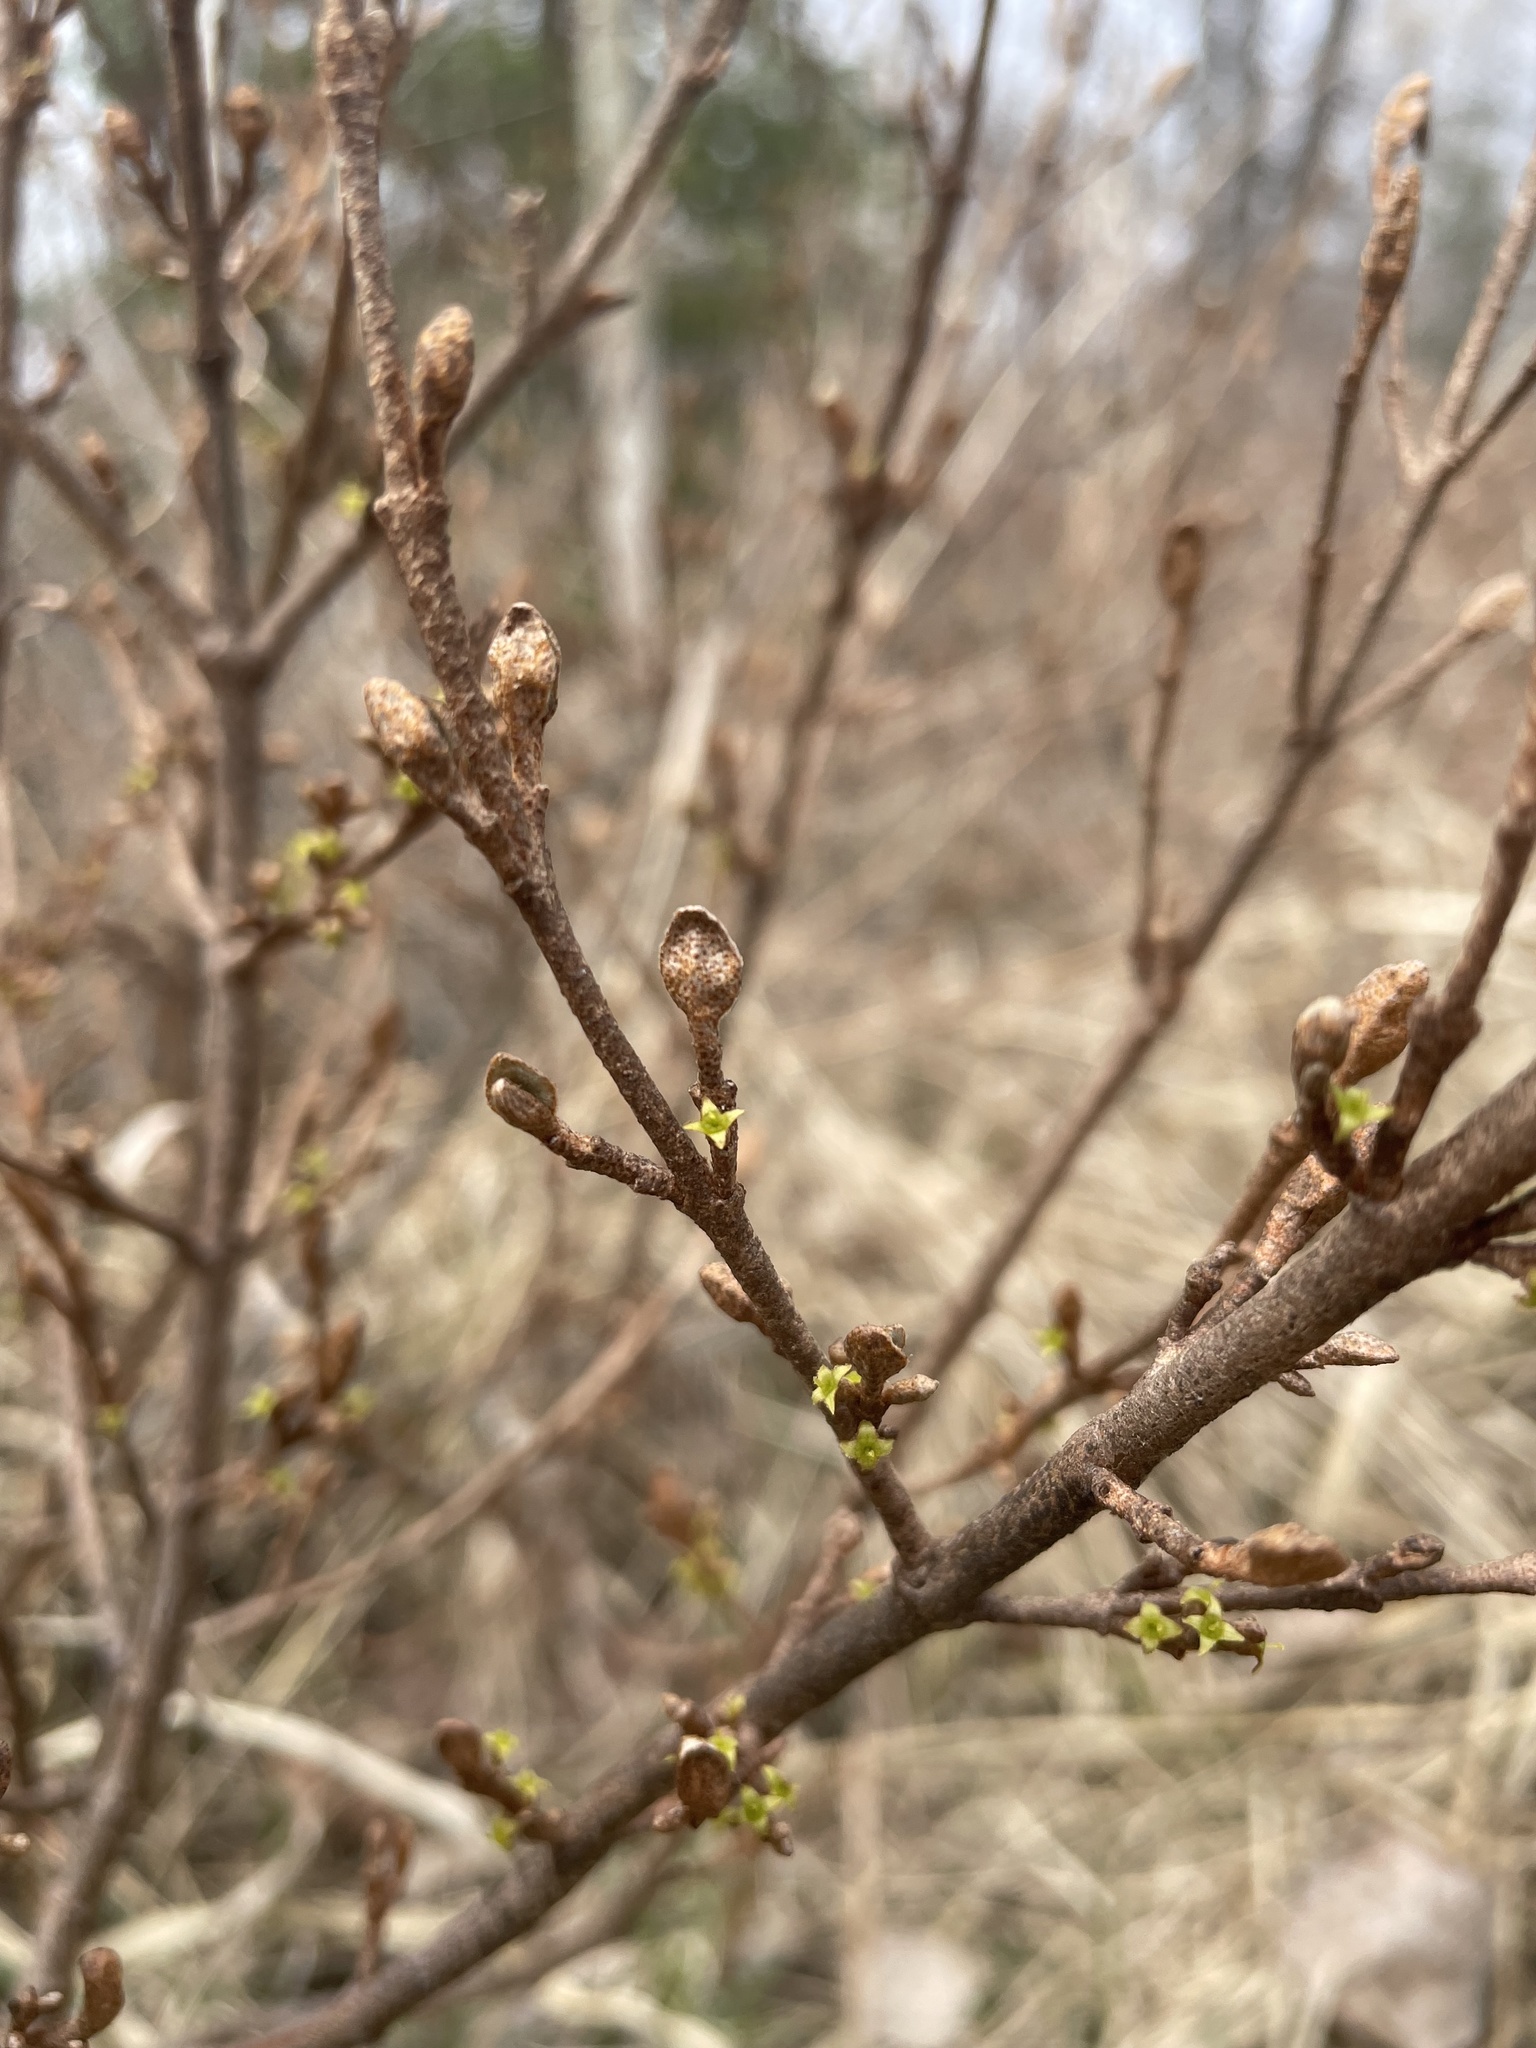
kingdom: Plantae
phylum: Tracheophyta
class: Magnoliopsida
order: Rosales
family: Elaeagnaceae
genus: Shepherdia
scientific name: Shepherdia canadensis
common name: Soapberry
